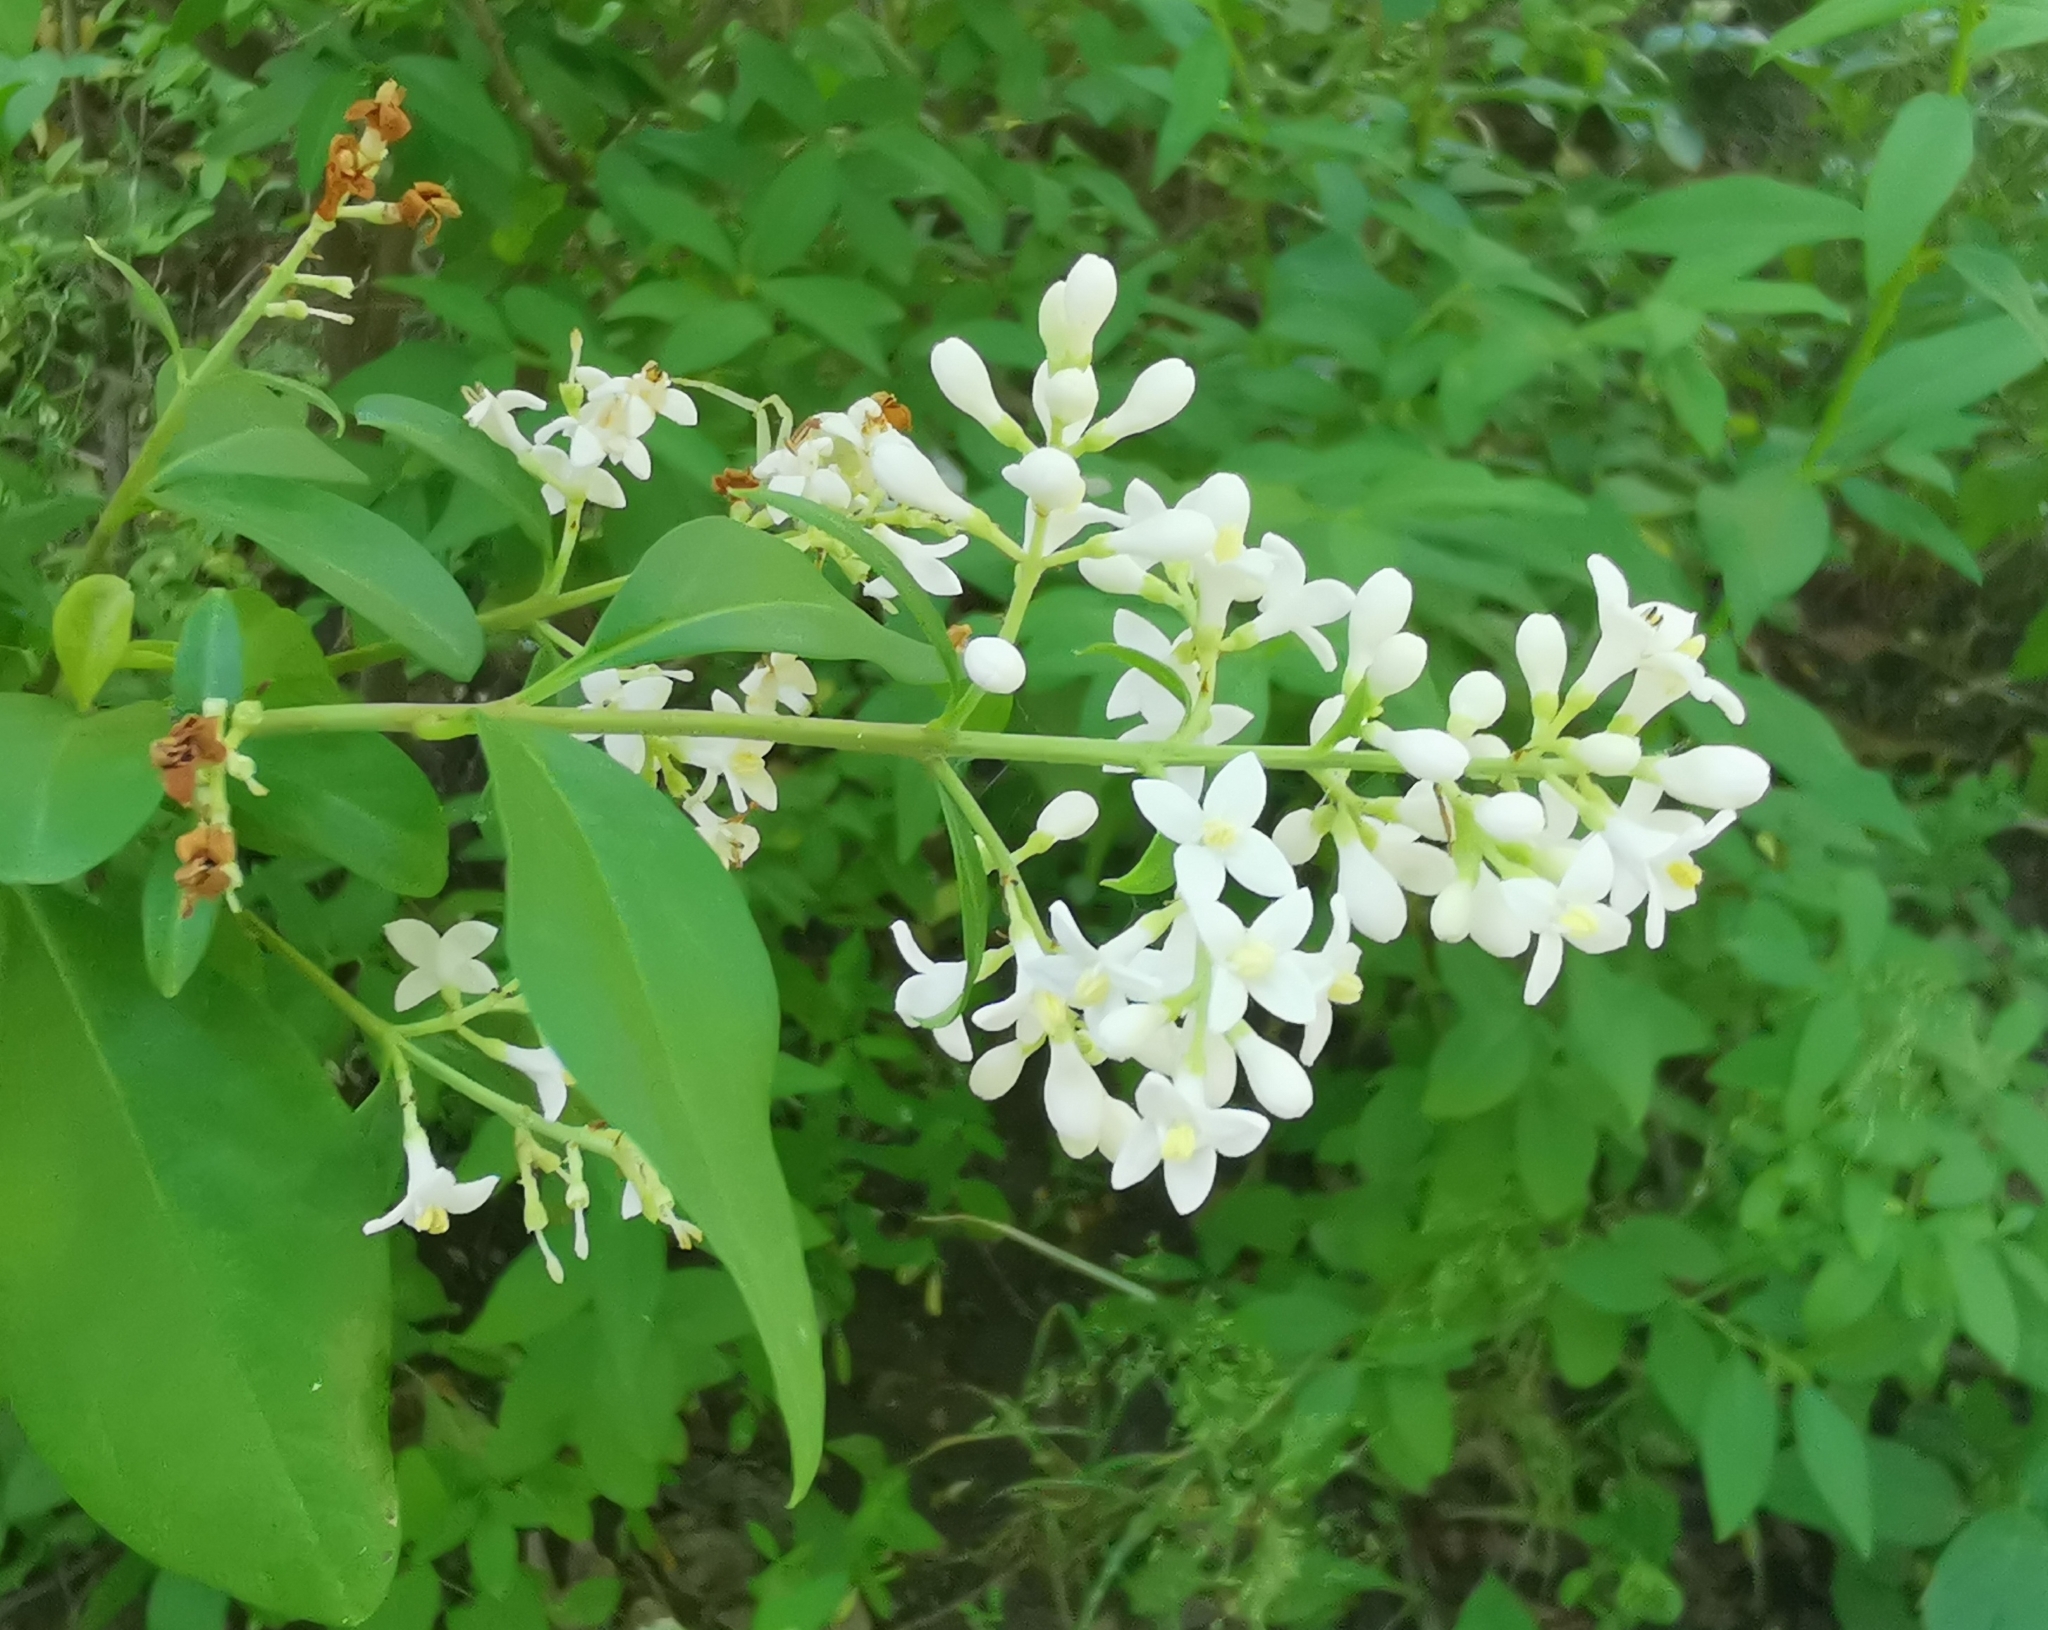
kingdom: Plantae
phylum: Tracheophyta
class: Magnoliopsida
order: Lamiales
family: Oleaceae
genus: Ligustrum
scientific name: Ligustrum vulgare
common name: Wild privet
